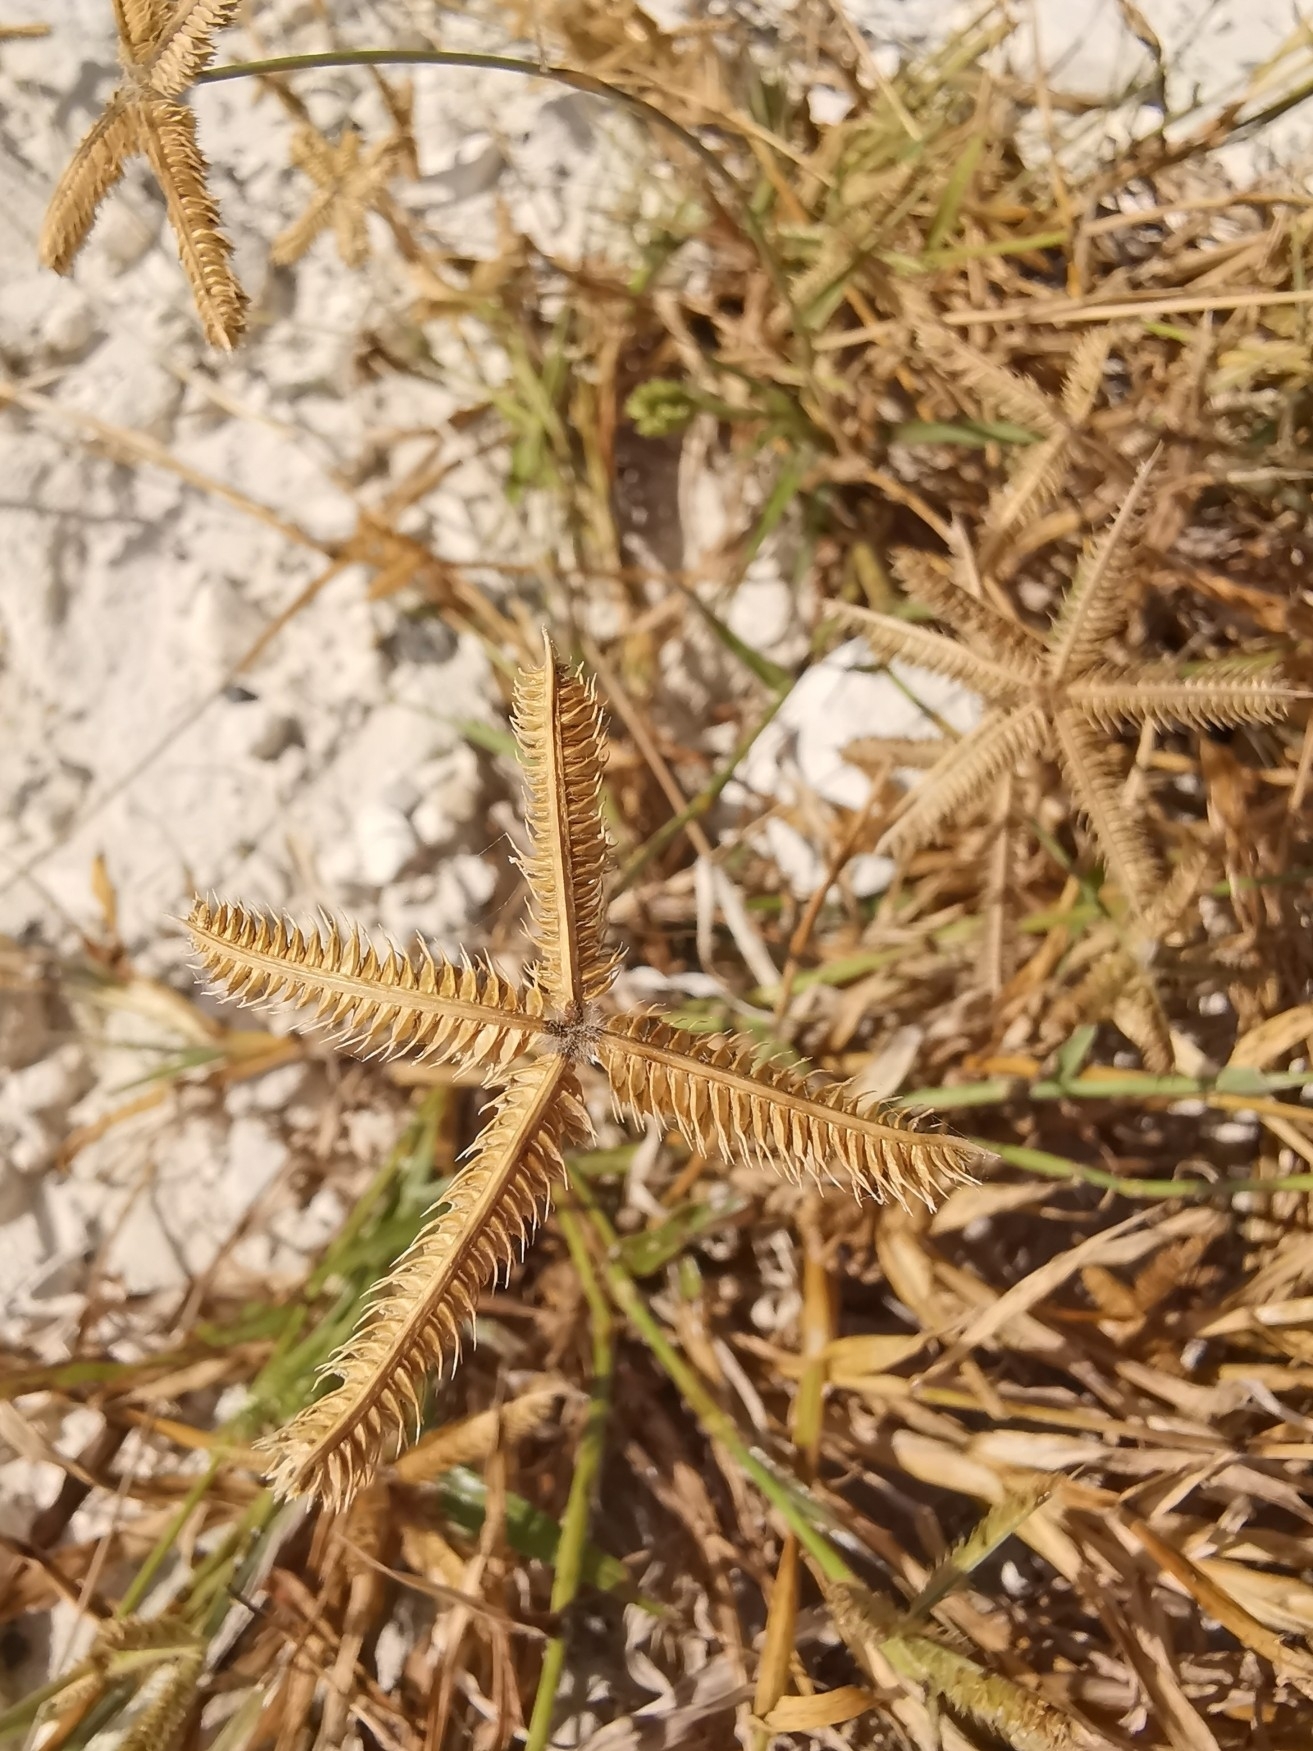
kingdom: Plantae
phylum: Tracheophyta
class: Liliopsida
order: Poales
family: Poaceae
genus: Dactyloctenium
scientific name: Dactyloctenium aegyptium
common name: Egyptian grass
